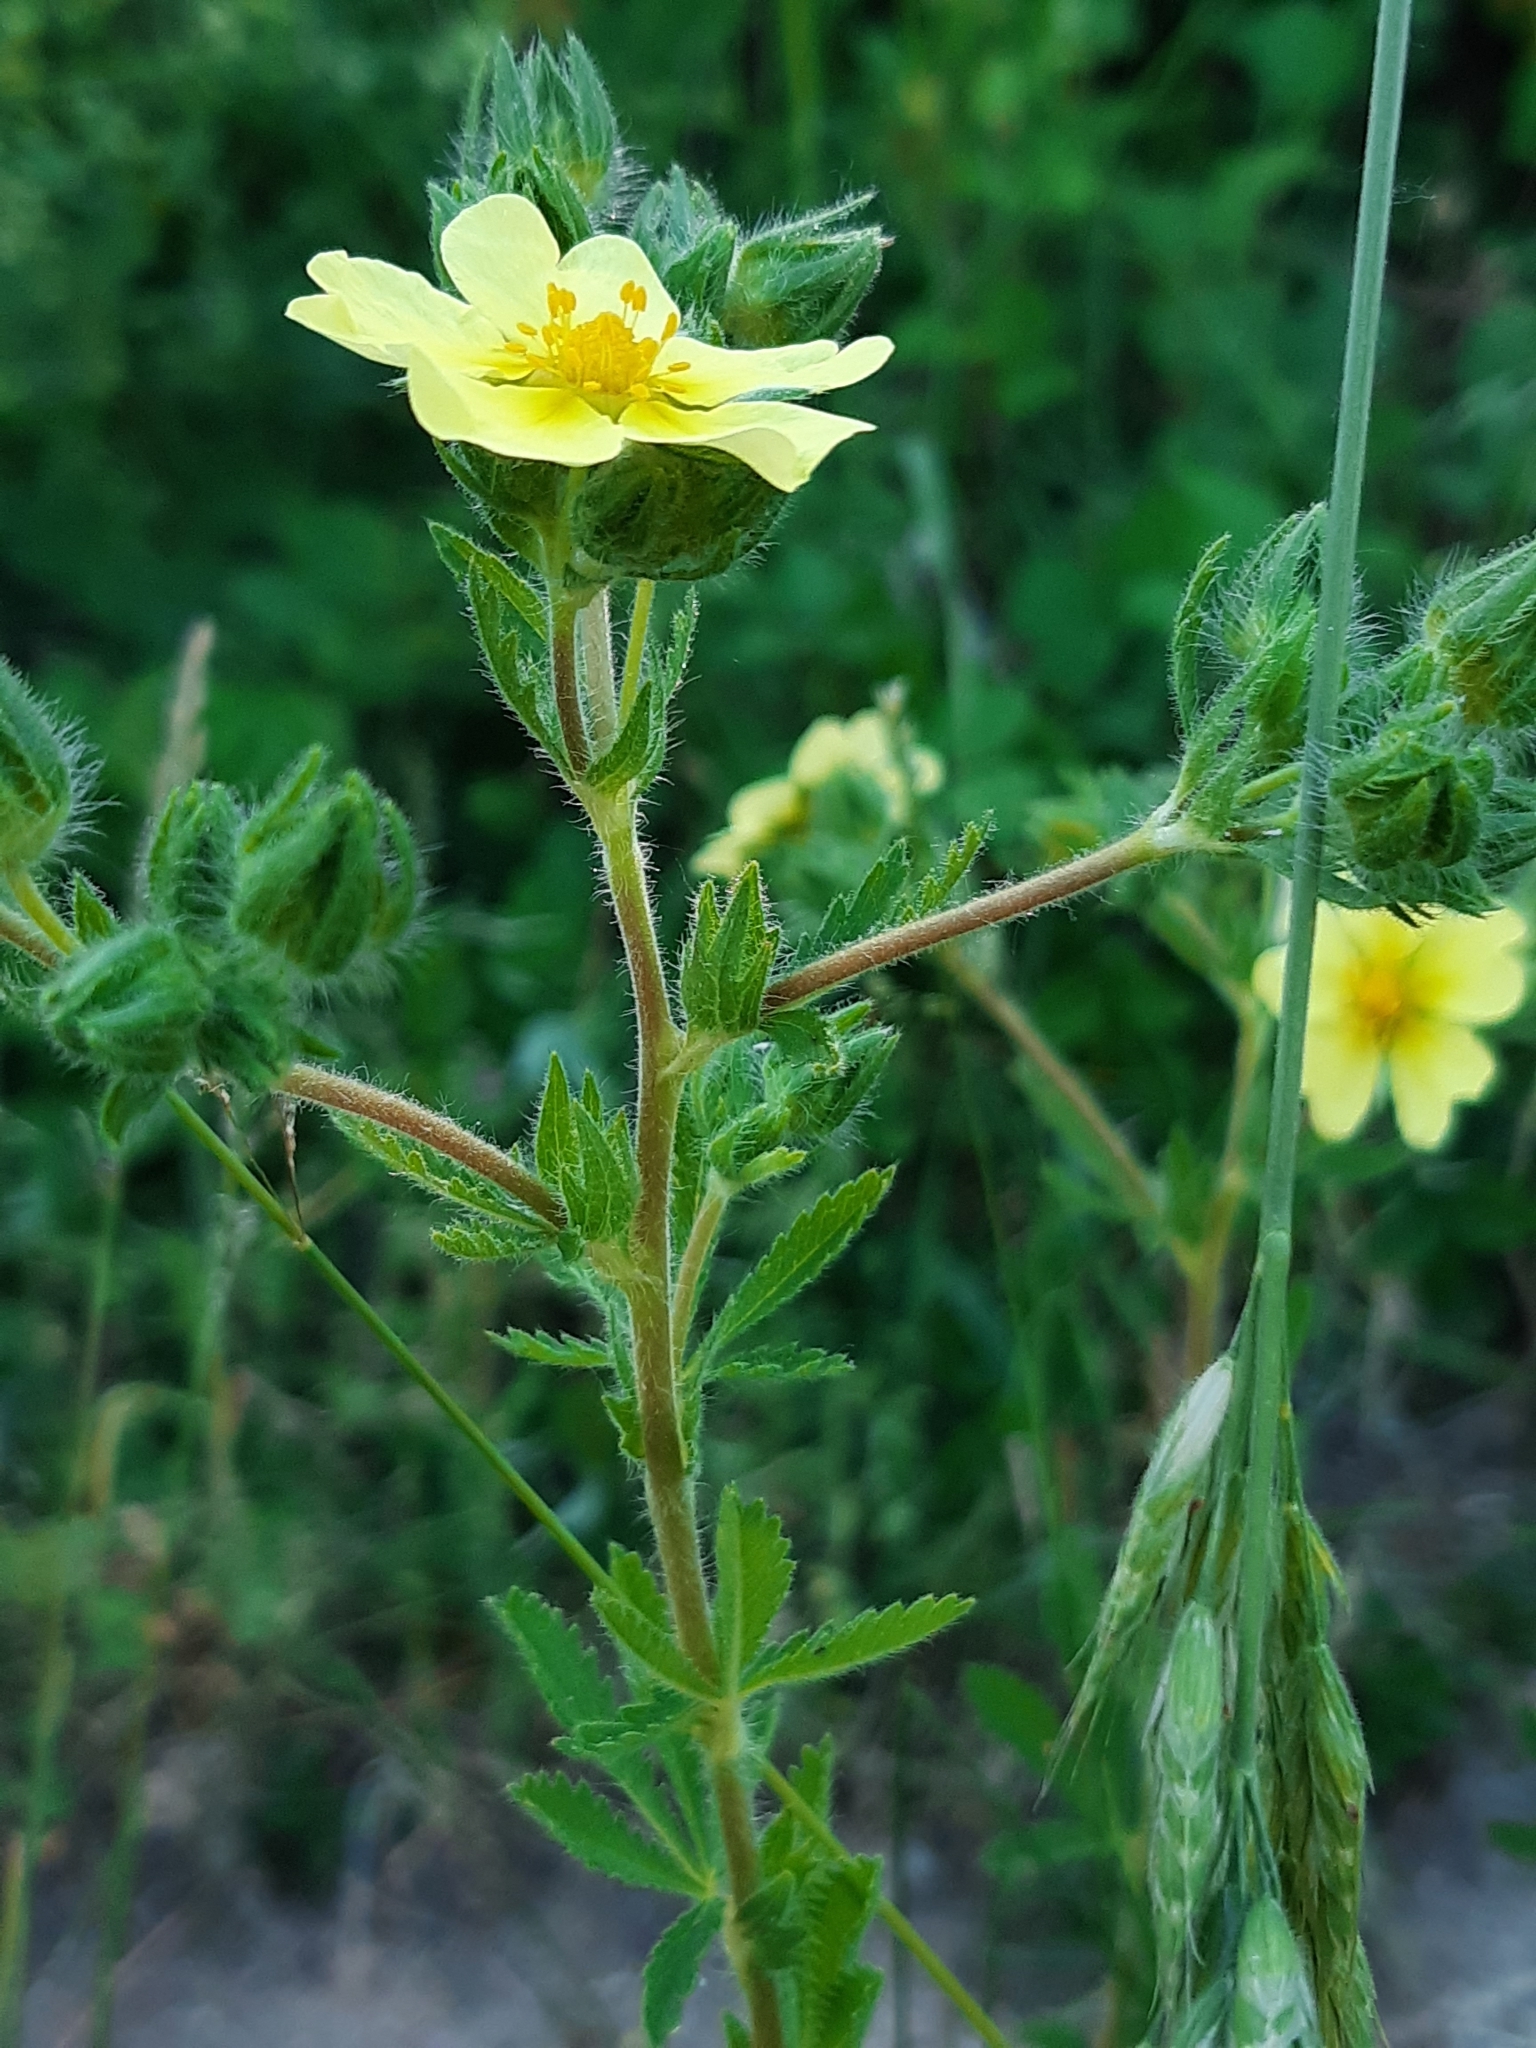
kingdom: Plantae
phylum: Tracheophyta
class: Magnoliopsida
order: Rosales
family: Rosaceae
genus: Potentilla
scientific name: Potentilla recta
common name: Sulphur cinquefoil
